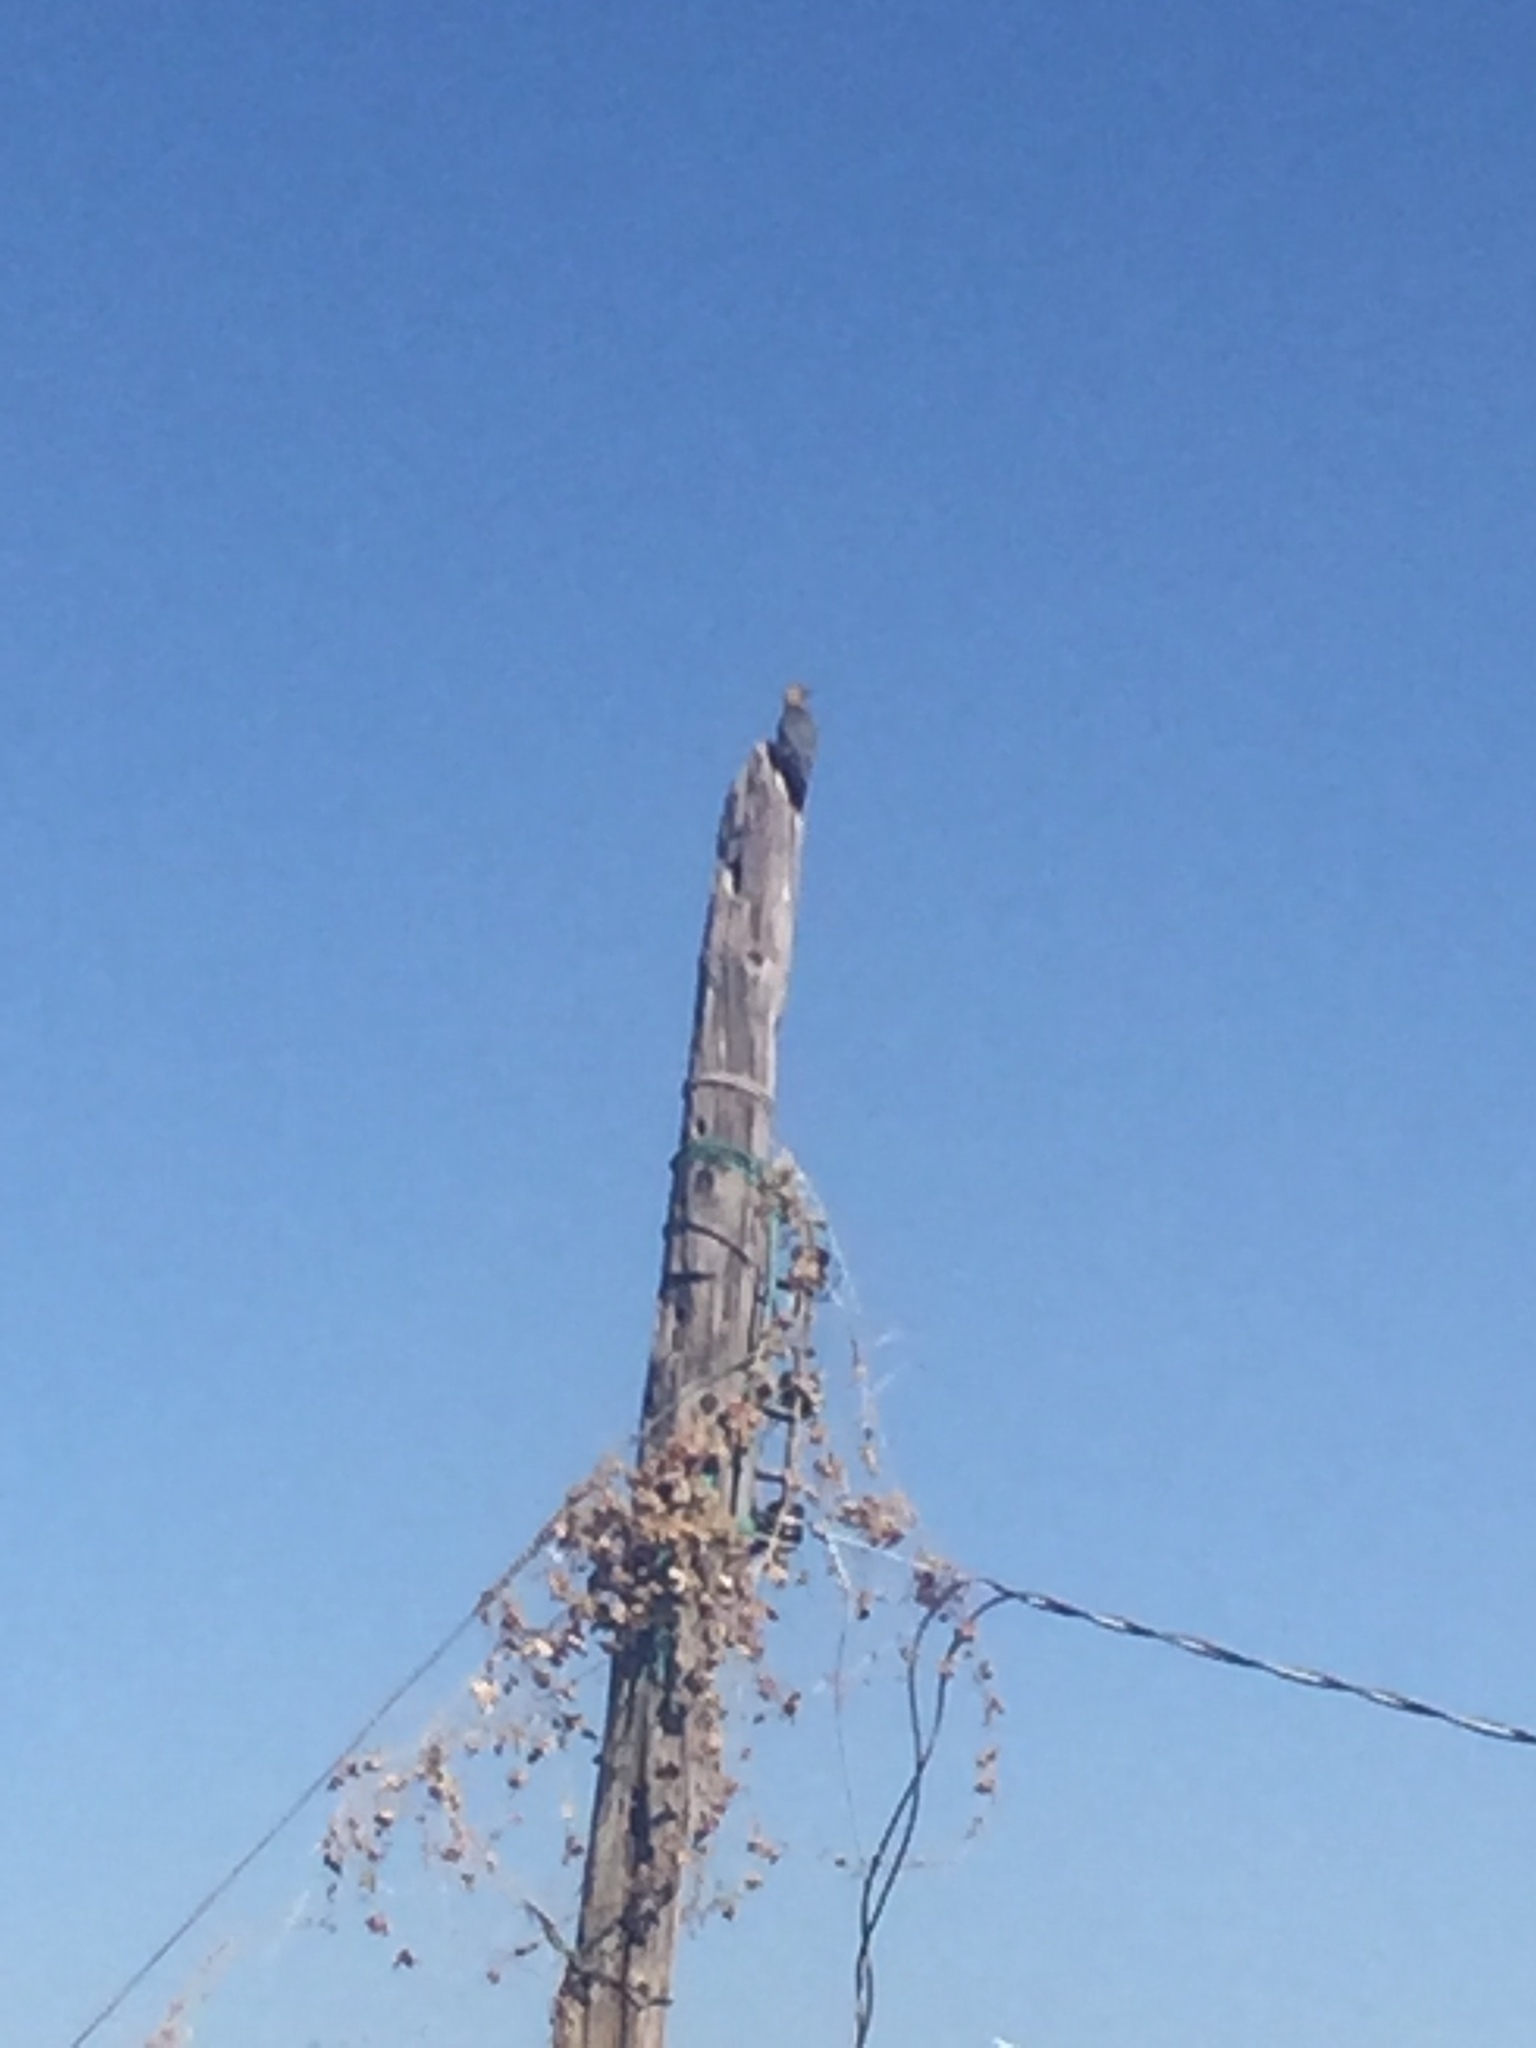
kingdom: Animalia
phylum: Chordata
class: Aves
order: Piciformes
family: Picidae
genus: Melanerpes
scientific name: Melanerpes aurifrons
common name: Golden-fronted woodpecker
